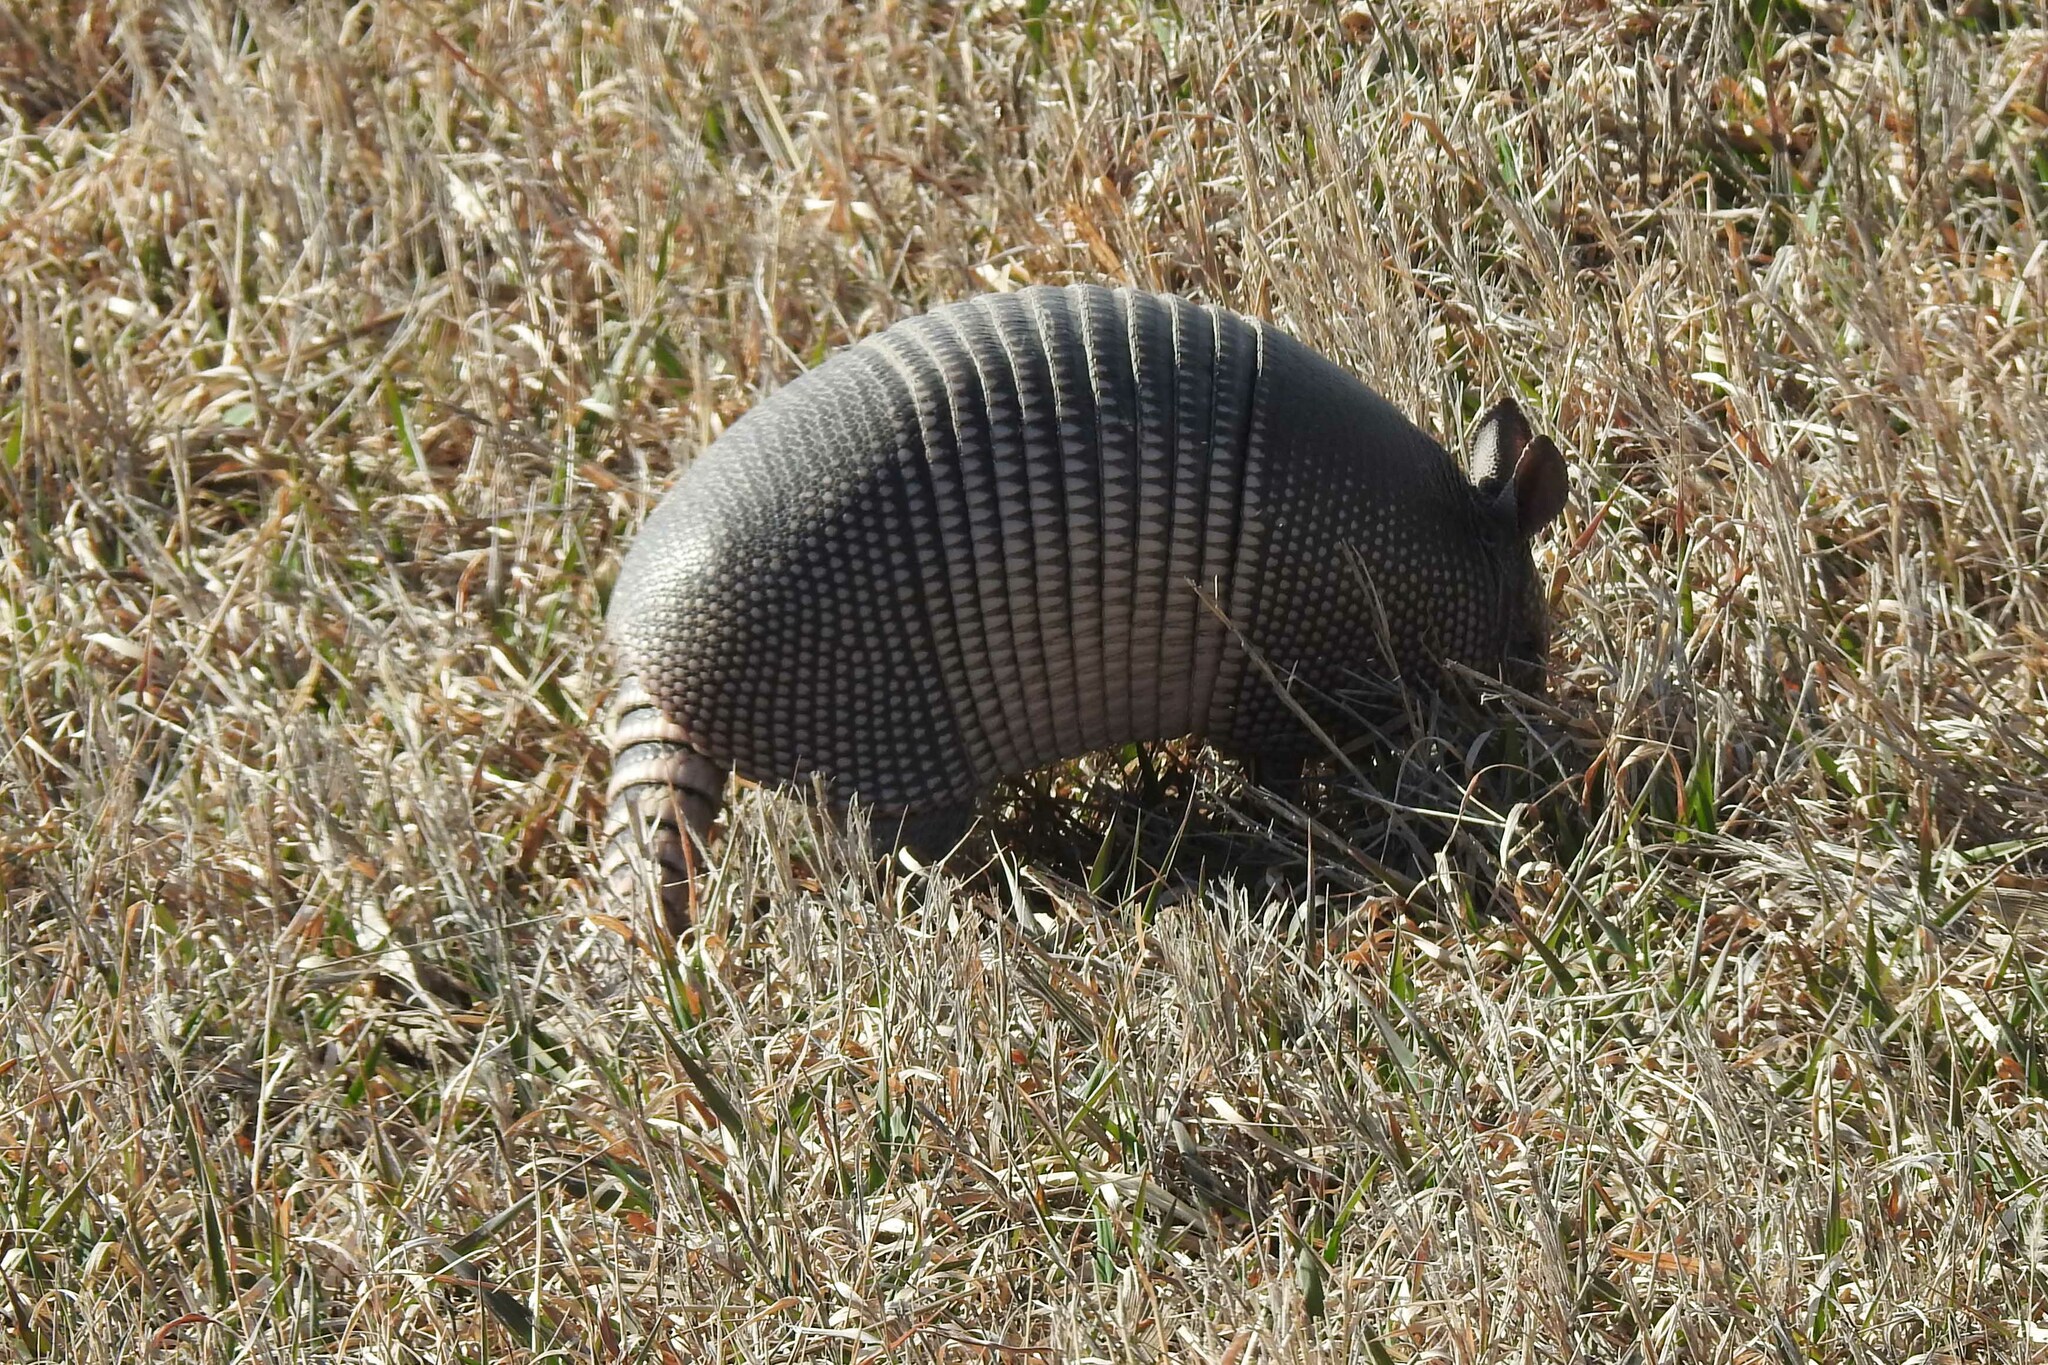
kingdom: Animalia
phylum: Chordata
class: Mammalia
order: Cingulata
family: Dasypodidae
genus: Dasypus
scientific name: Dasypus novemcinctus
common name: Nine-banded armadillo
